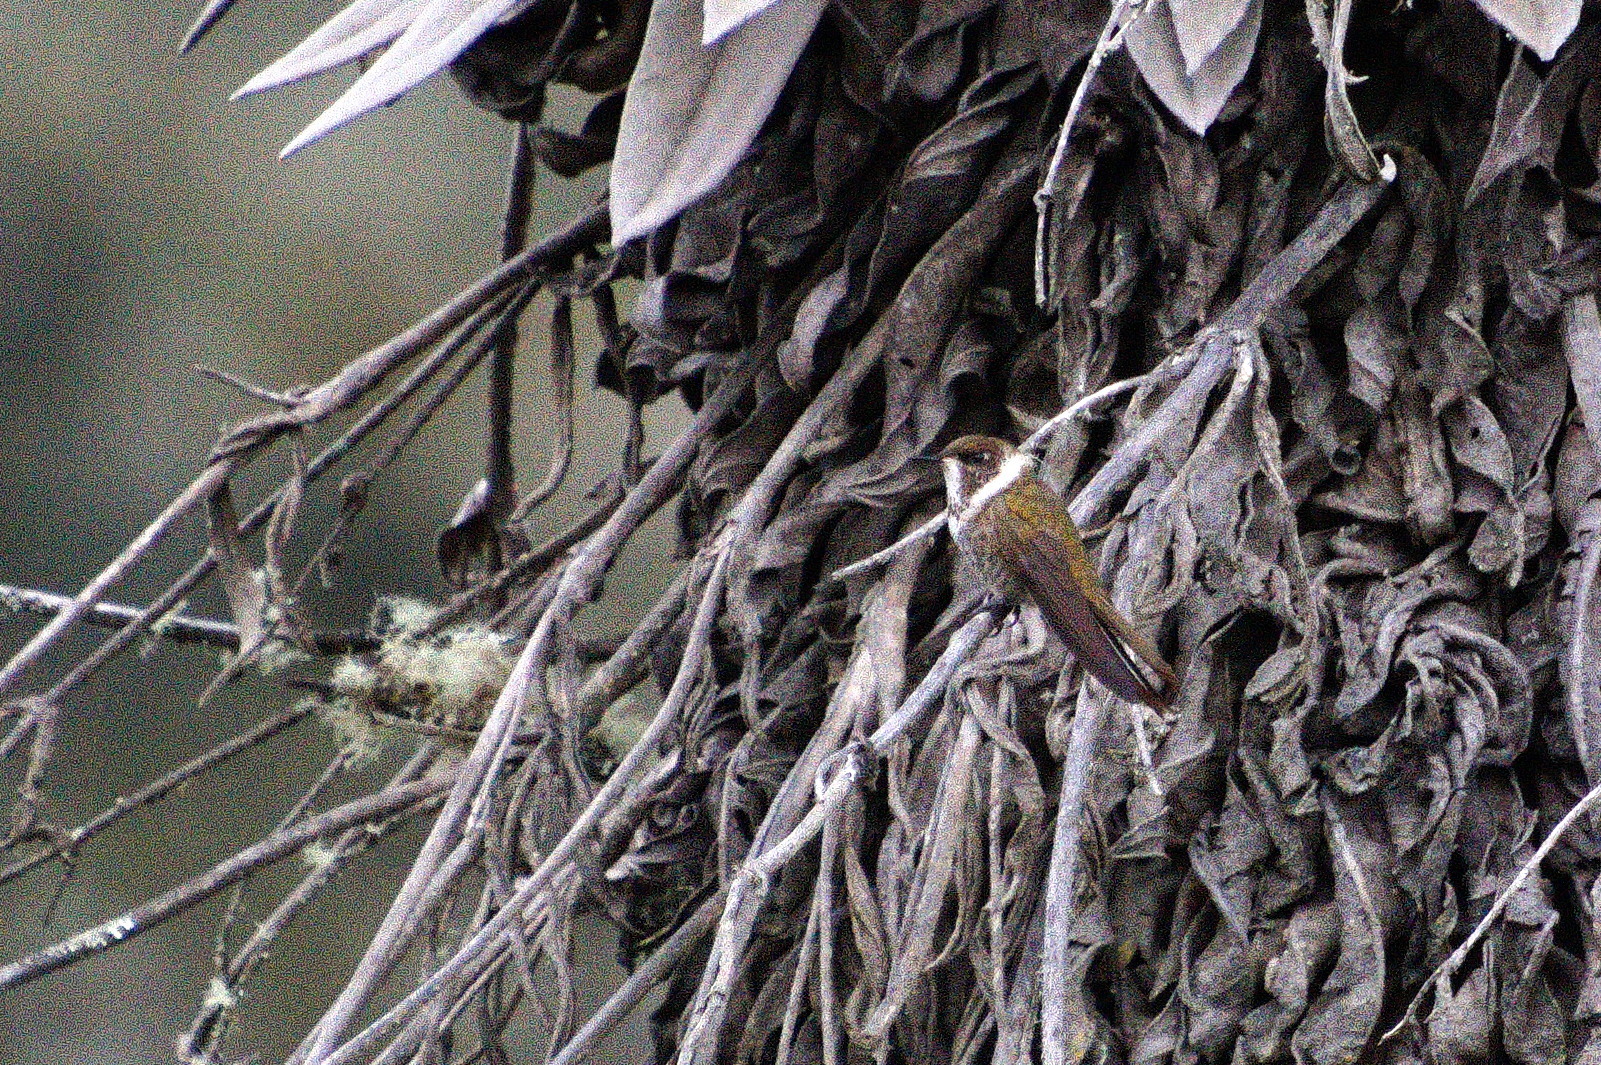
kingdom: Animalia
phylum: Chordata
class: Aves
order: Apodiformes
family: Trochilidae
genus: Oxypogon
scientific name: Oxypogon guerinii
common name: Bearded helmetcrest
